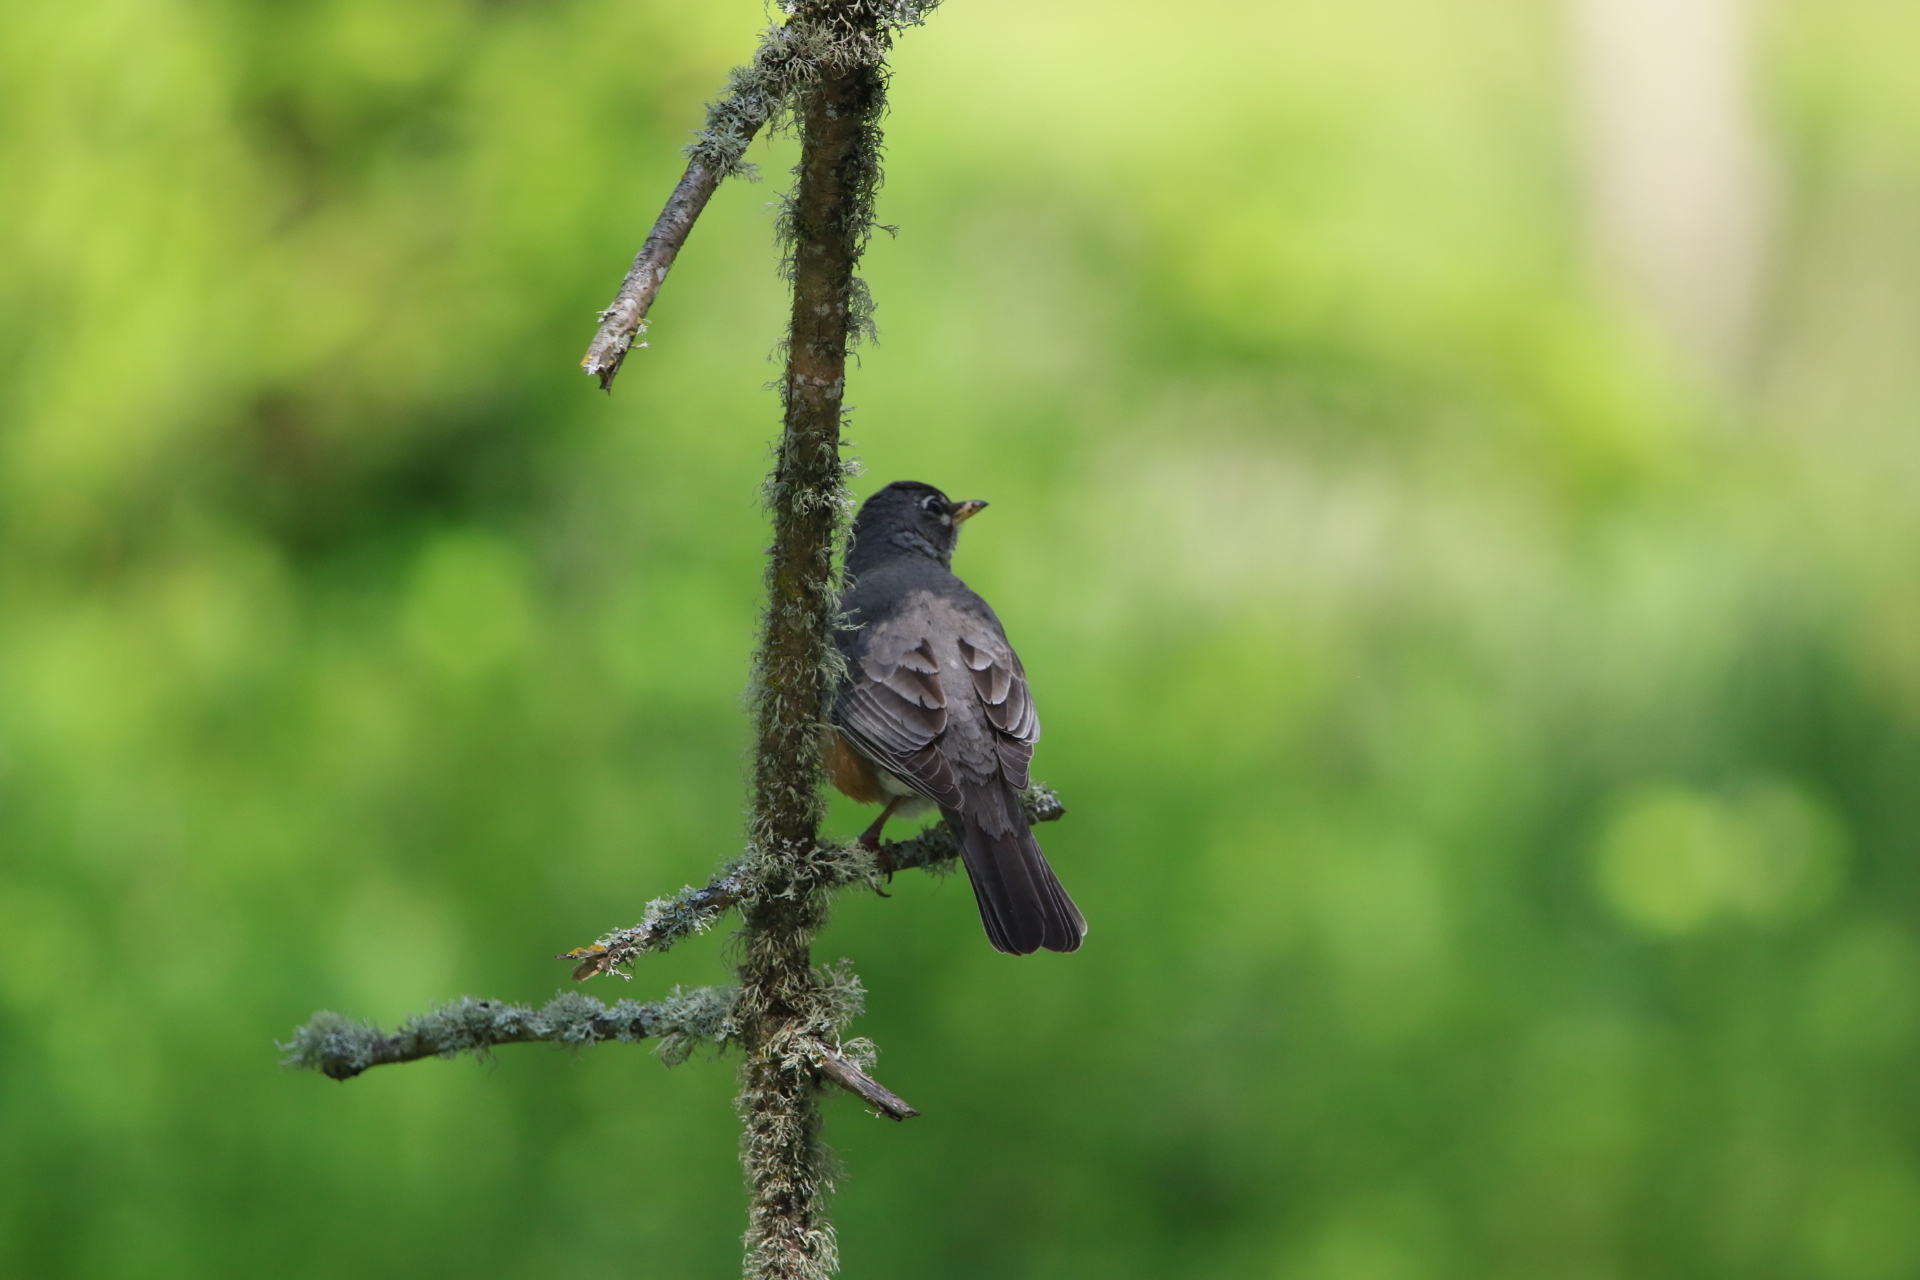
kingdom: Animalia
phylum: Chordata
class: Aves
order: Passeriformes
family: Turdidae
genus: Turdus
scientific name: Turdus migratorius
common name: American robin
